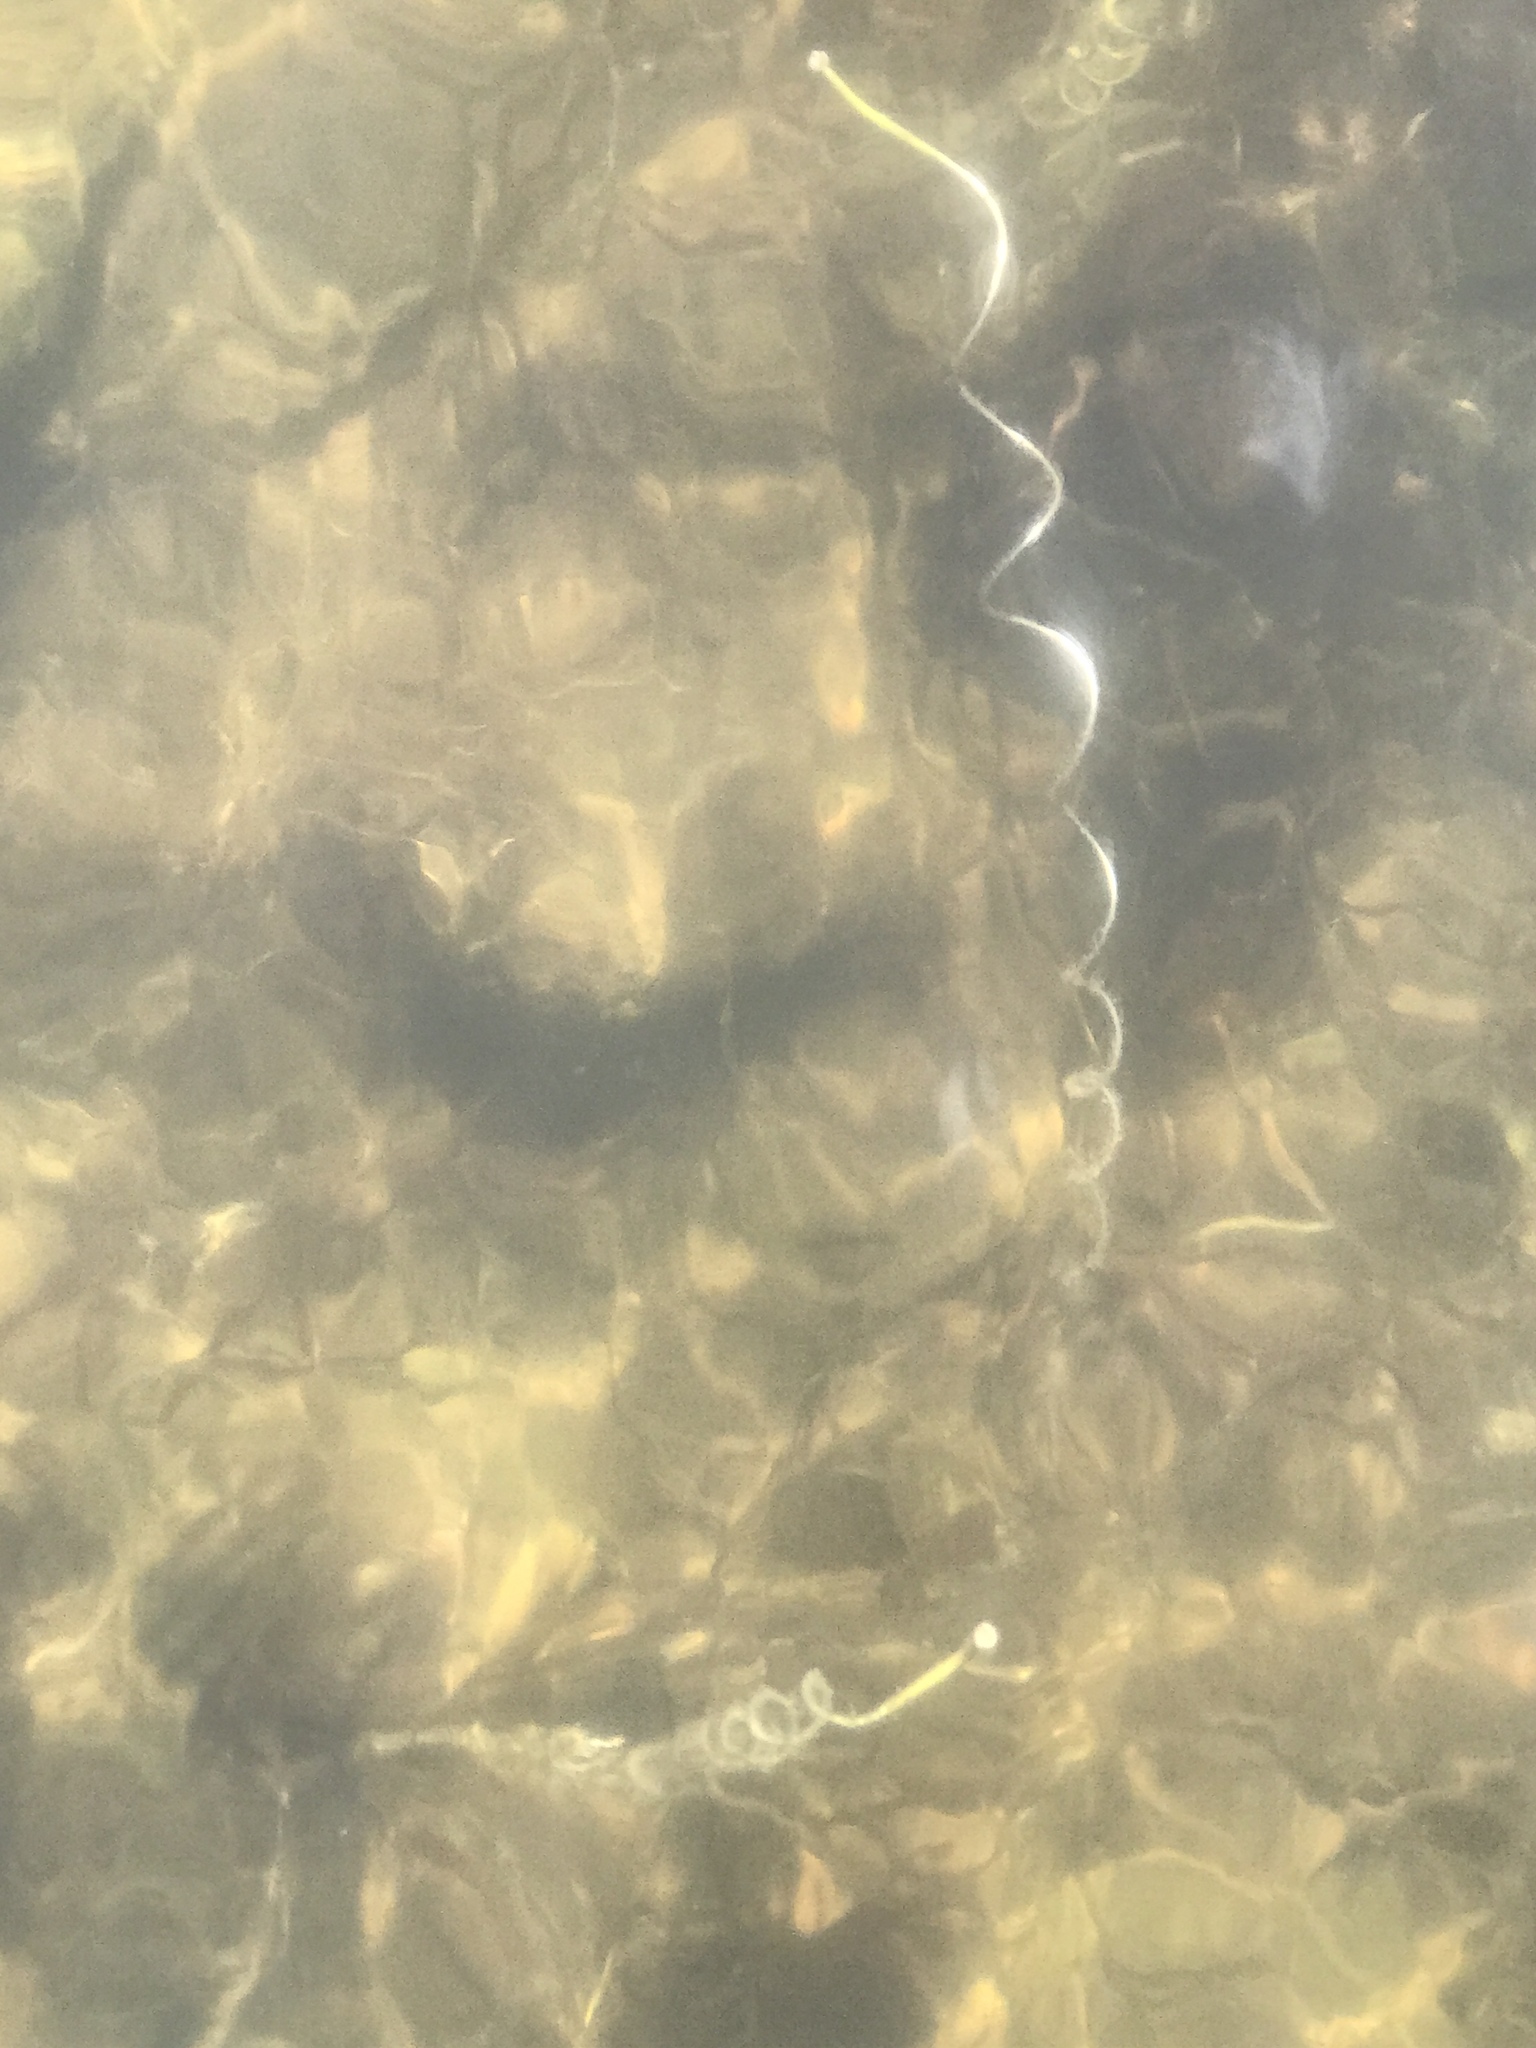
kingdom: Plantae
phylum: Tracheophyta
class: Liliopsida
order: Alismatales
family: Hydrocharitaceae
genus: Vallisneria
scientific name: Vallisneria americana
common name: American eelgrass
